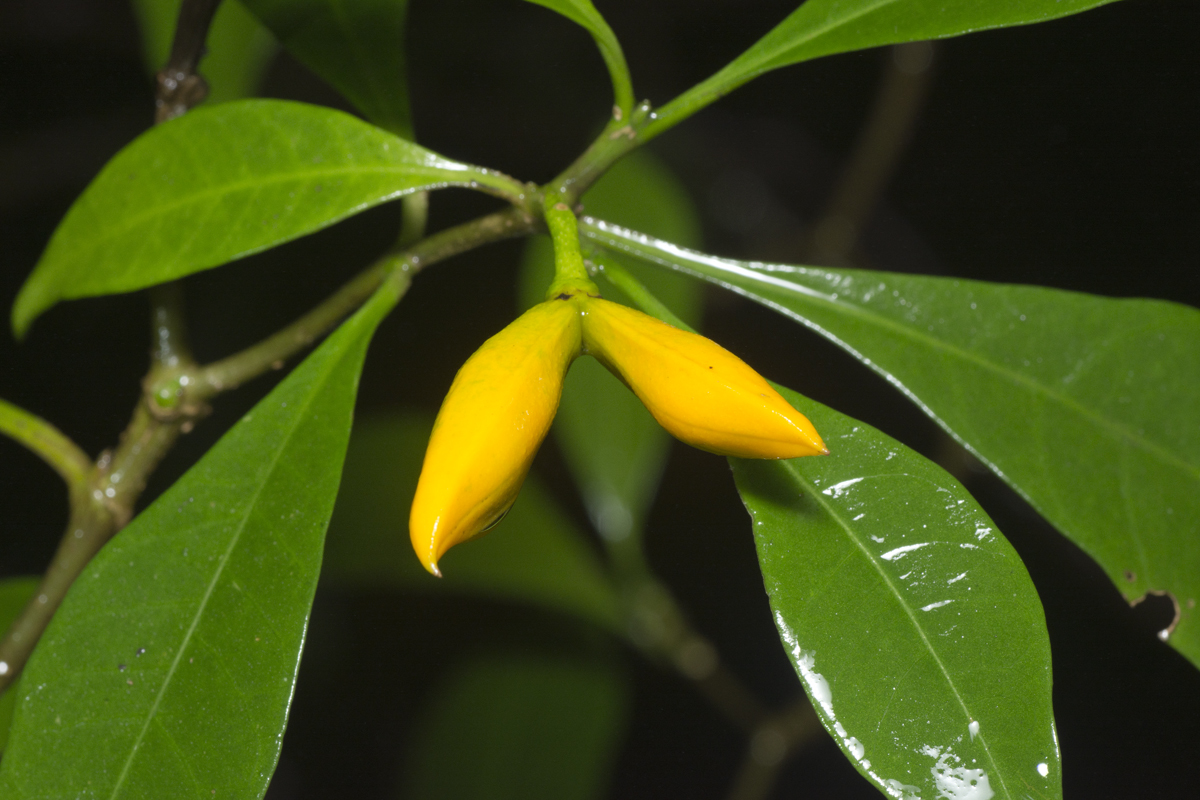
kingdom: Plantae
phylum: Tracheophyta
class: Magnoliopsida
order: Gentianales
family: Apocynaceae
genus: Tabernaemontana
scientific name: Tabernaemontana pandacaqui
